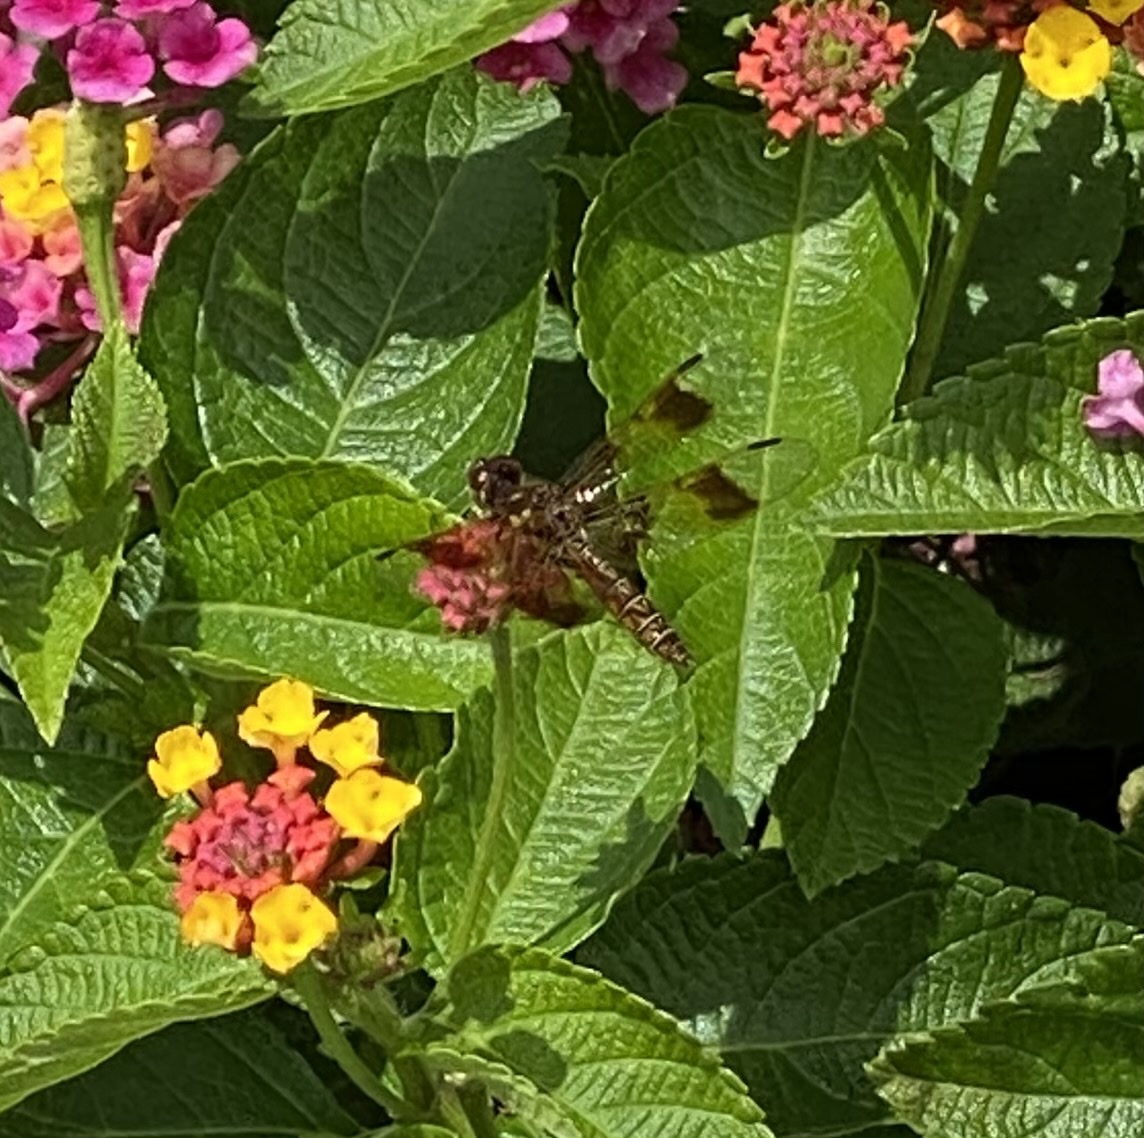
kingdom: Animalia
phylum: Arthropoda
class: Insecta
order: Odonata
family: Libellulidae
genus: Perithemis
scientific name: Perithemis tenera
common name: Eastern amberwing
